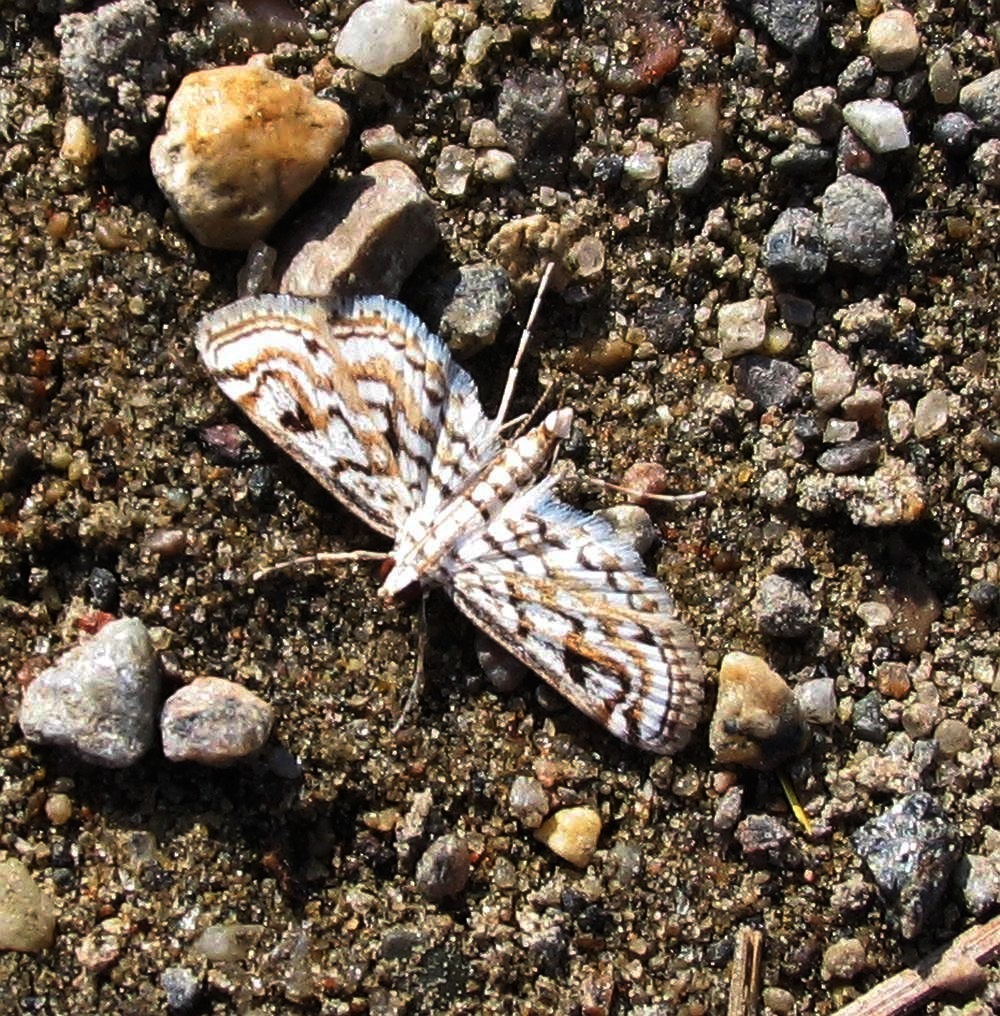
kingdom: Animalia
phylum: Arthropoda
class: Insecta
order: Lepidoptera
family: Crambidae
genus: Parapoynx
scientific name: Parapoynx allionealis
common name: Bladderwort casemaker
